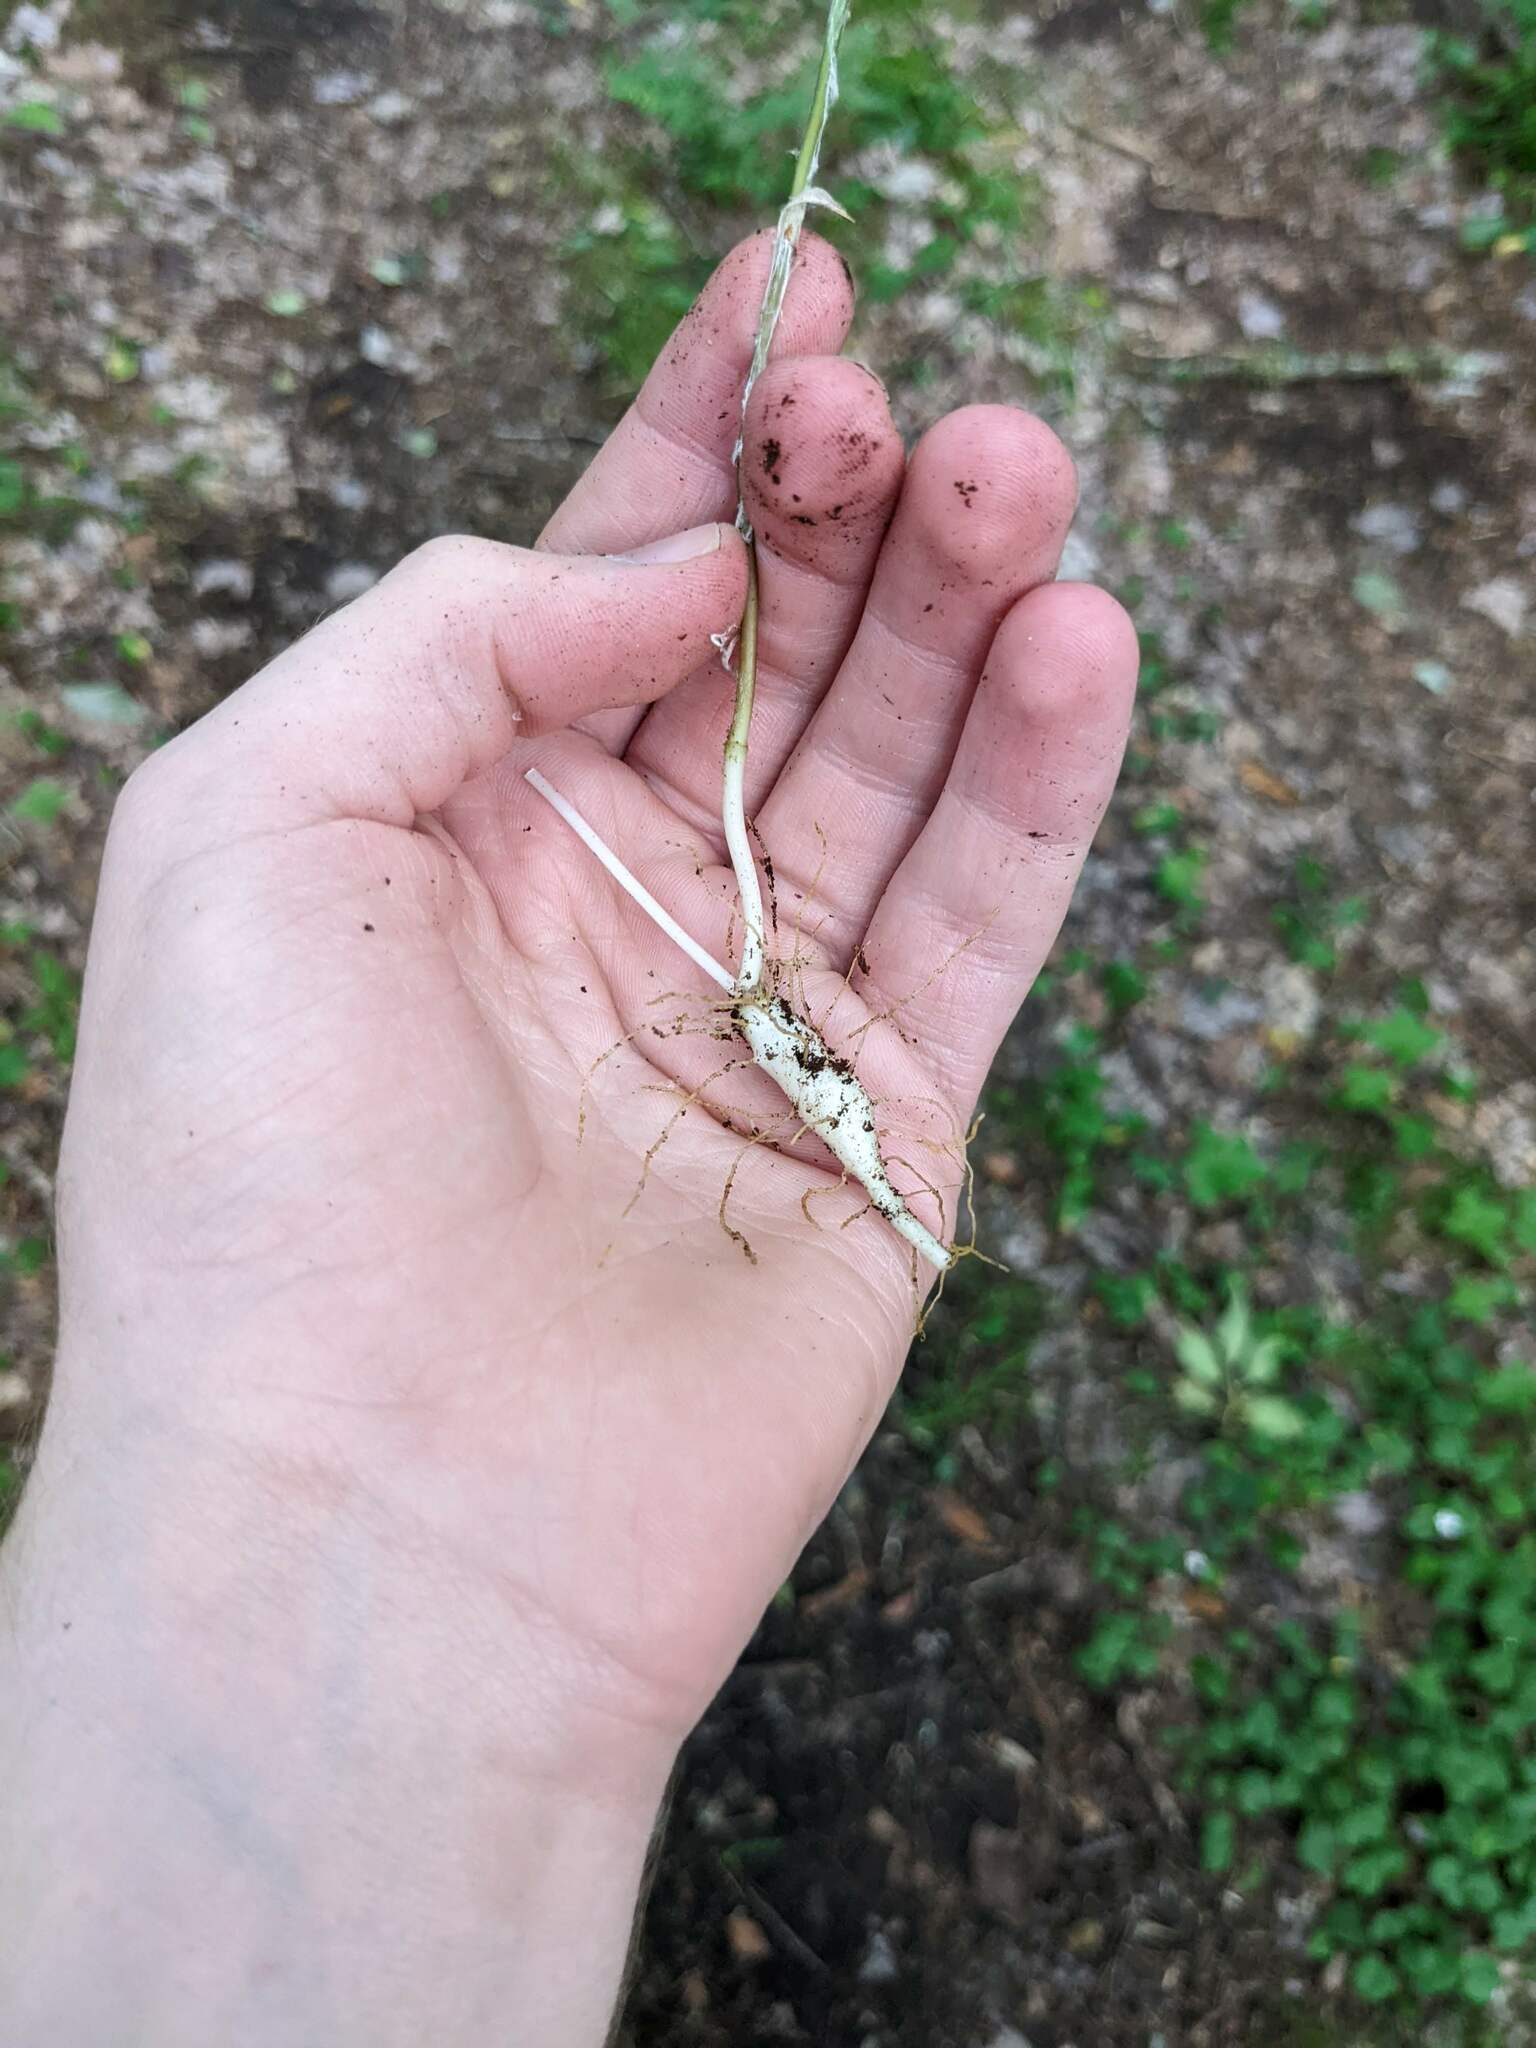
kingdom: Plantae
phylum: Tracheophyta
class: Liliopsida
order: Liliales
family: Liliaceae
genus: Medeola
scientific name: Medeola virginiana
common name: Indian cucumber-root
